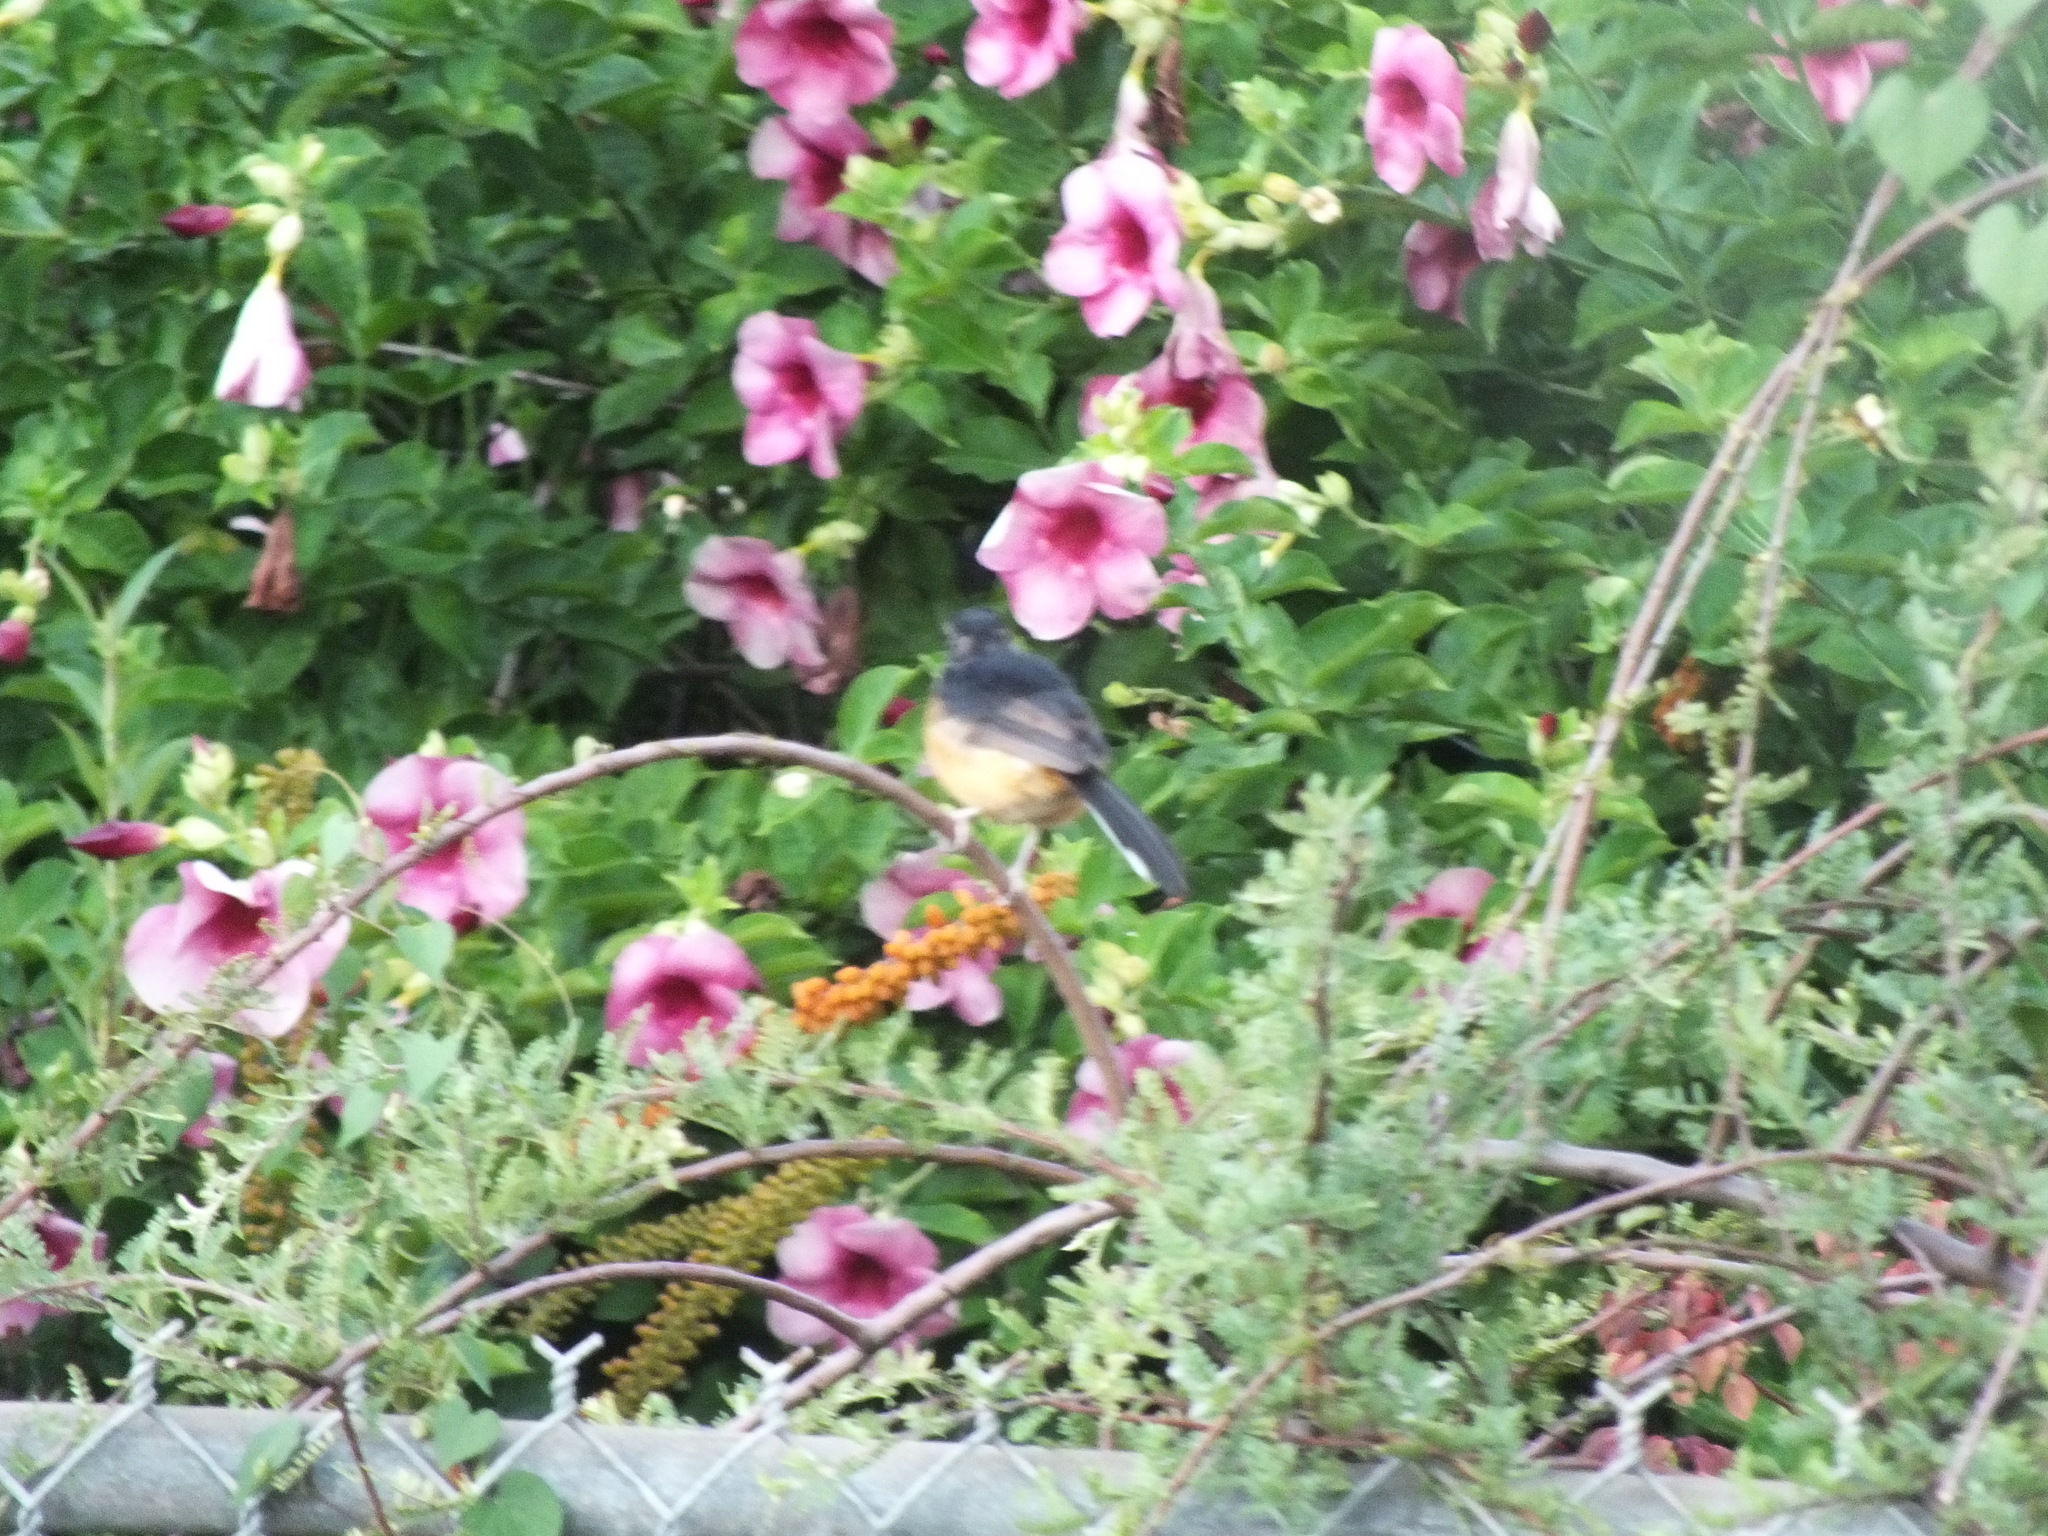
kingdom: Animalia
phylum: Chordata
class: Aves
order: Passeriformes
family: Muscicapidae
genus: Copsychus
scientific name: Copsychus malabaricus
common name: White-rumped shama
